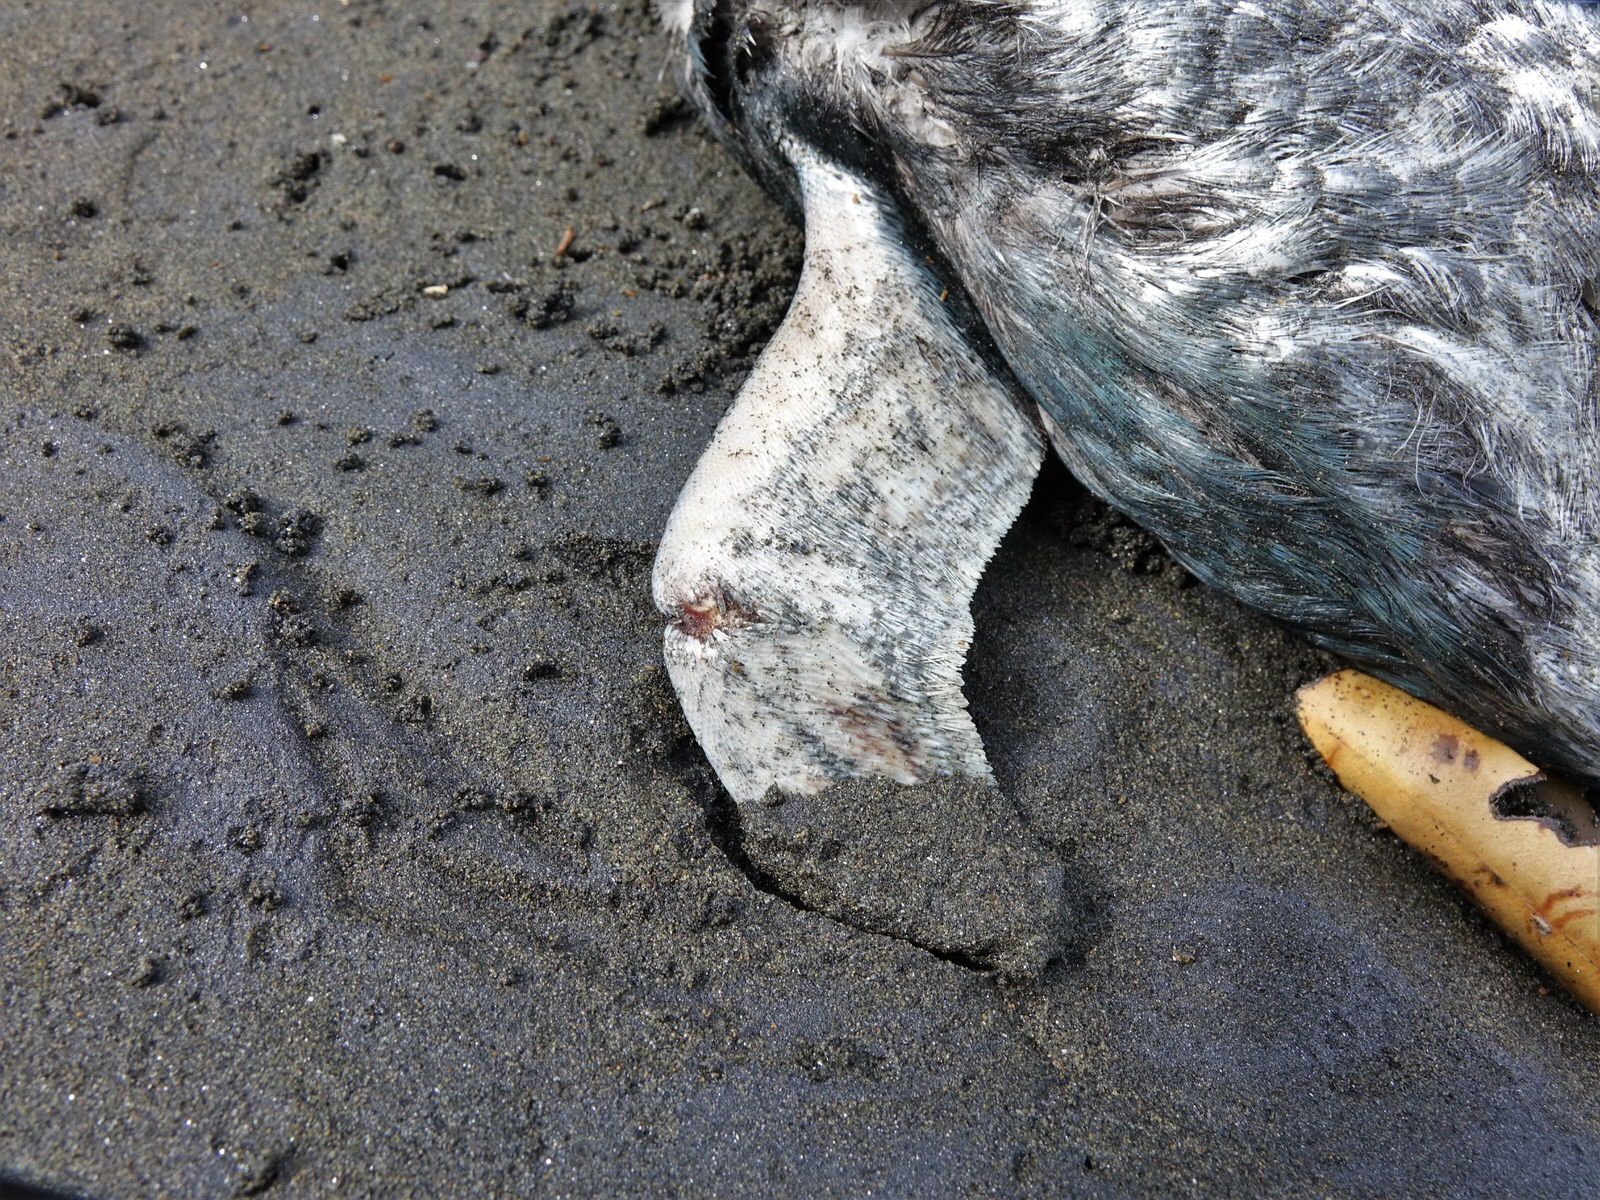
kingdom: Animalia
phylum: Chordata
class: Aves
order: Sphenisciformes
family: Spheniscidae
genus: Eudyptula
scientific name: Eudyptula minor
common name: Little penguin
